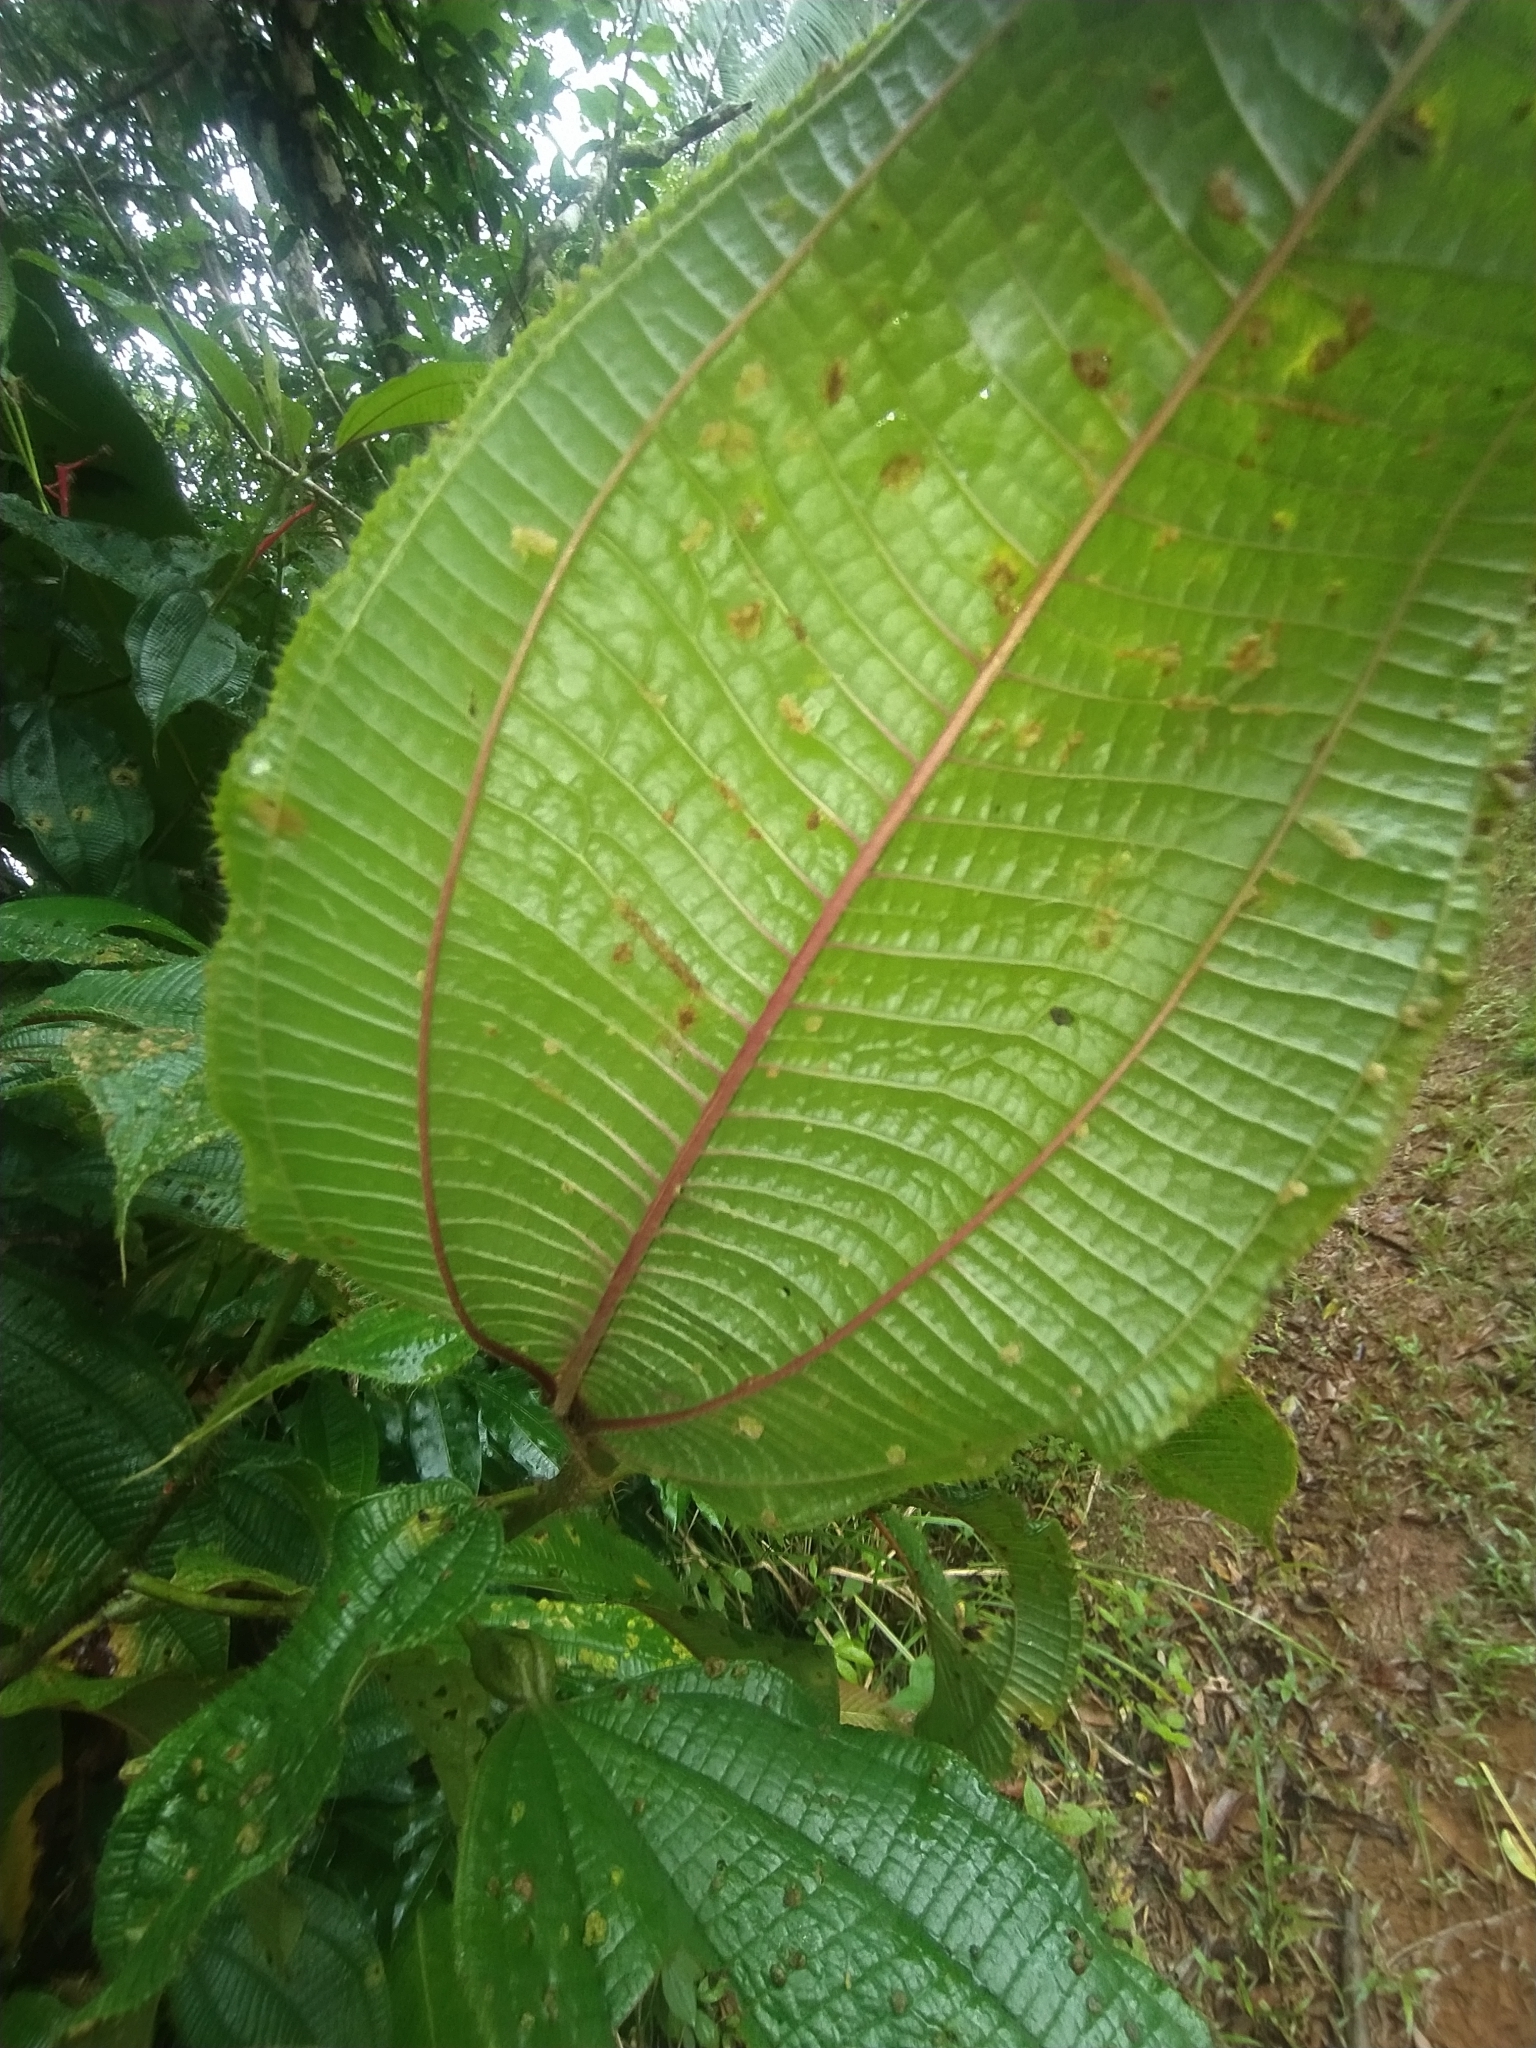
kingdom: Plantae
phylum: Tracheophyta
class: Magnoliopsida
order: Myrtales
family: Melastomataceae
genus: Miconia
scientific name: Miconia tococa
